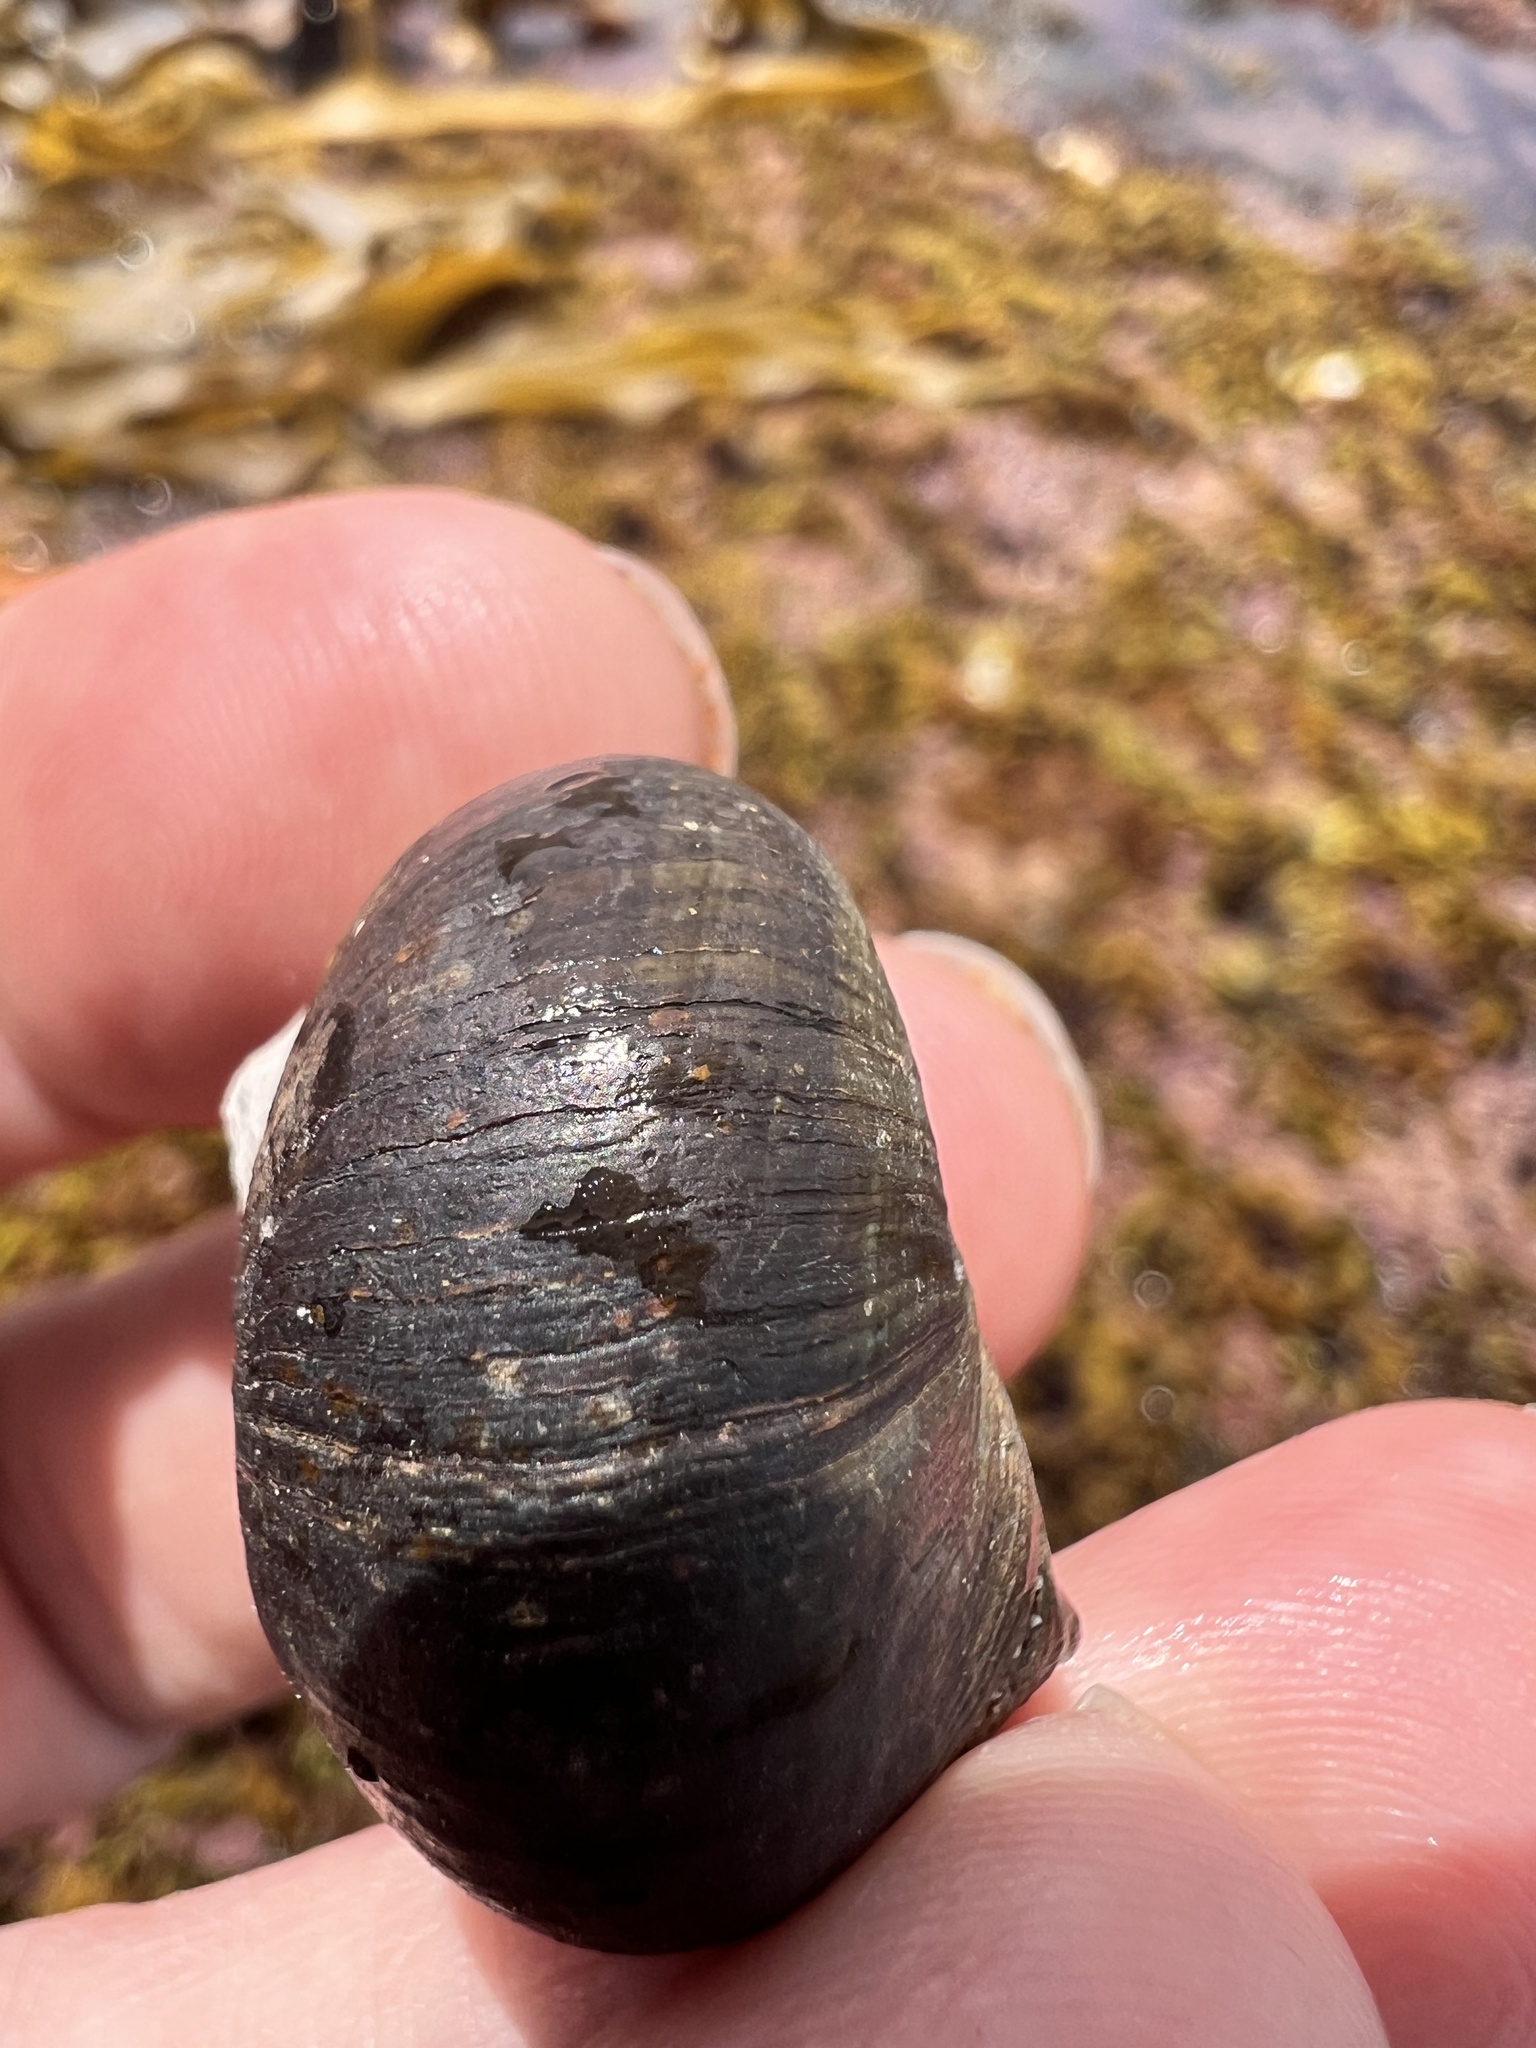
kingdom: Animalia
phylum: Mollusca
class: Gastropoda
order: Trochida
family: Turbinidae
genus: Lunella
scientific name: Lunella smaragda
